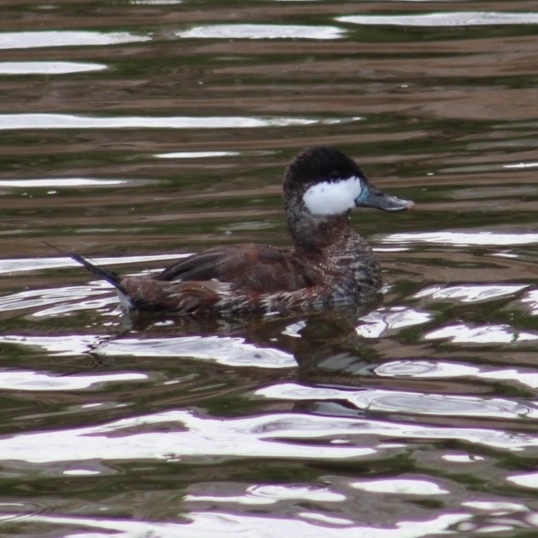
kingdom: Animalia
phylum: Chordata
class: Aves
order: Anseriformes
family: Anatidae
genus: Oxyura
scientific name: Oxyura jamaicensis
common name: Ruddy duck
